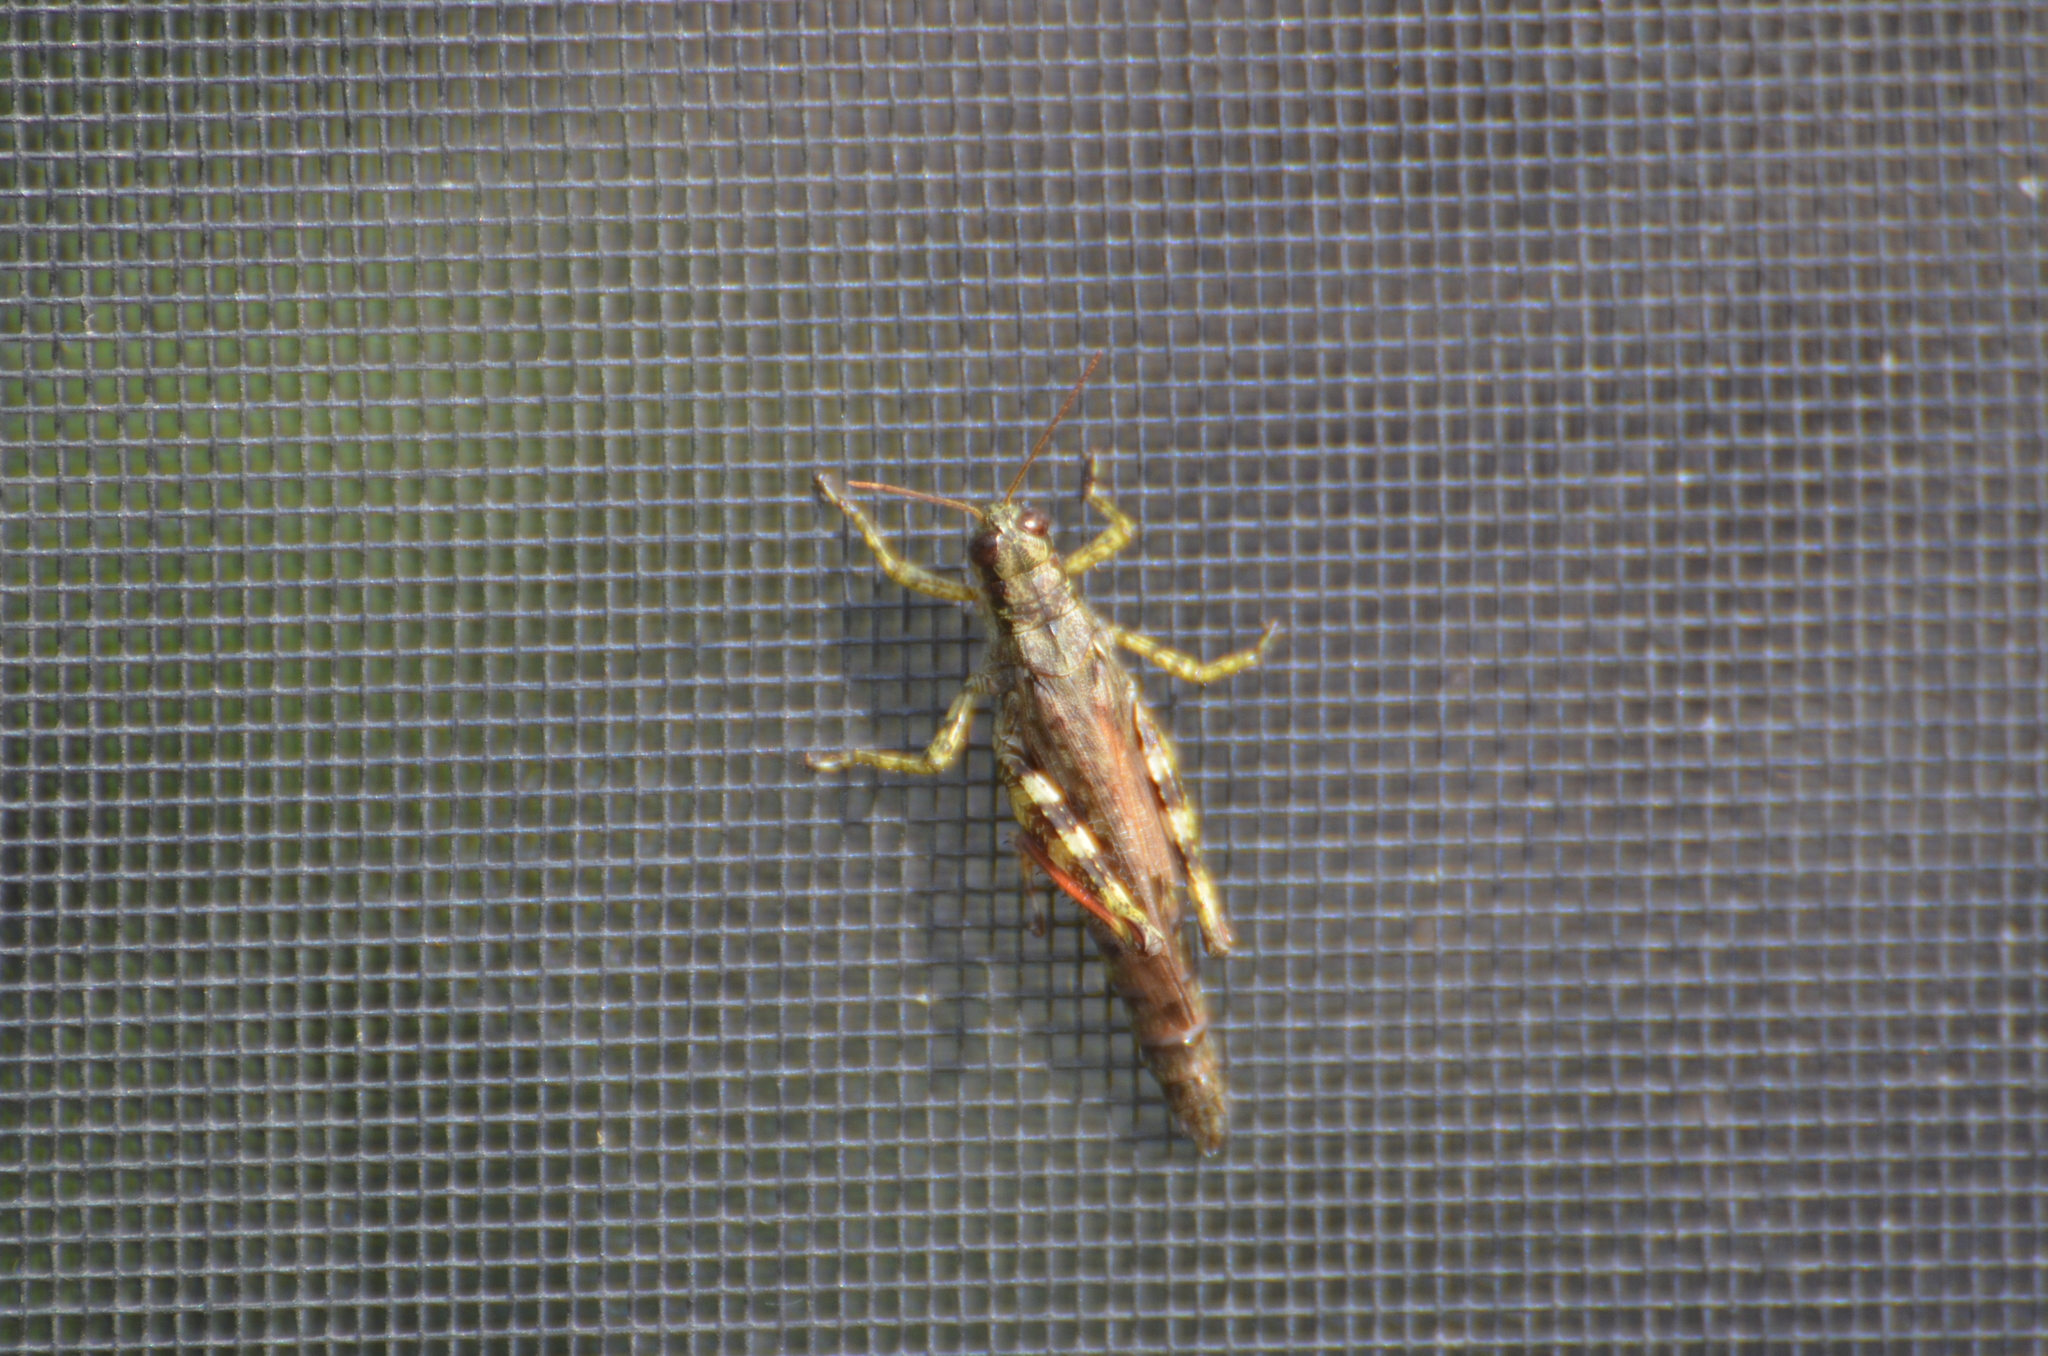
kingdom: Animalia
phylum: Arthropoda
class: Insecta
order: Orthoptera
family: Acrididae
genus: Melanoplus
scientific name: Melanoplus punctulatus
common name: Pine-tree spur-throat grasshopper
